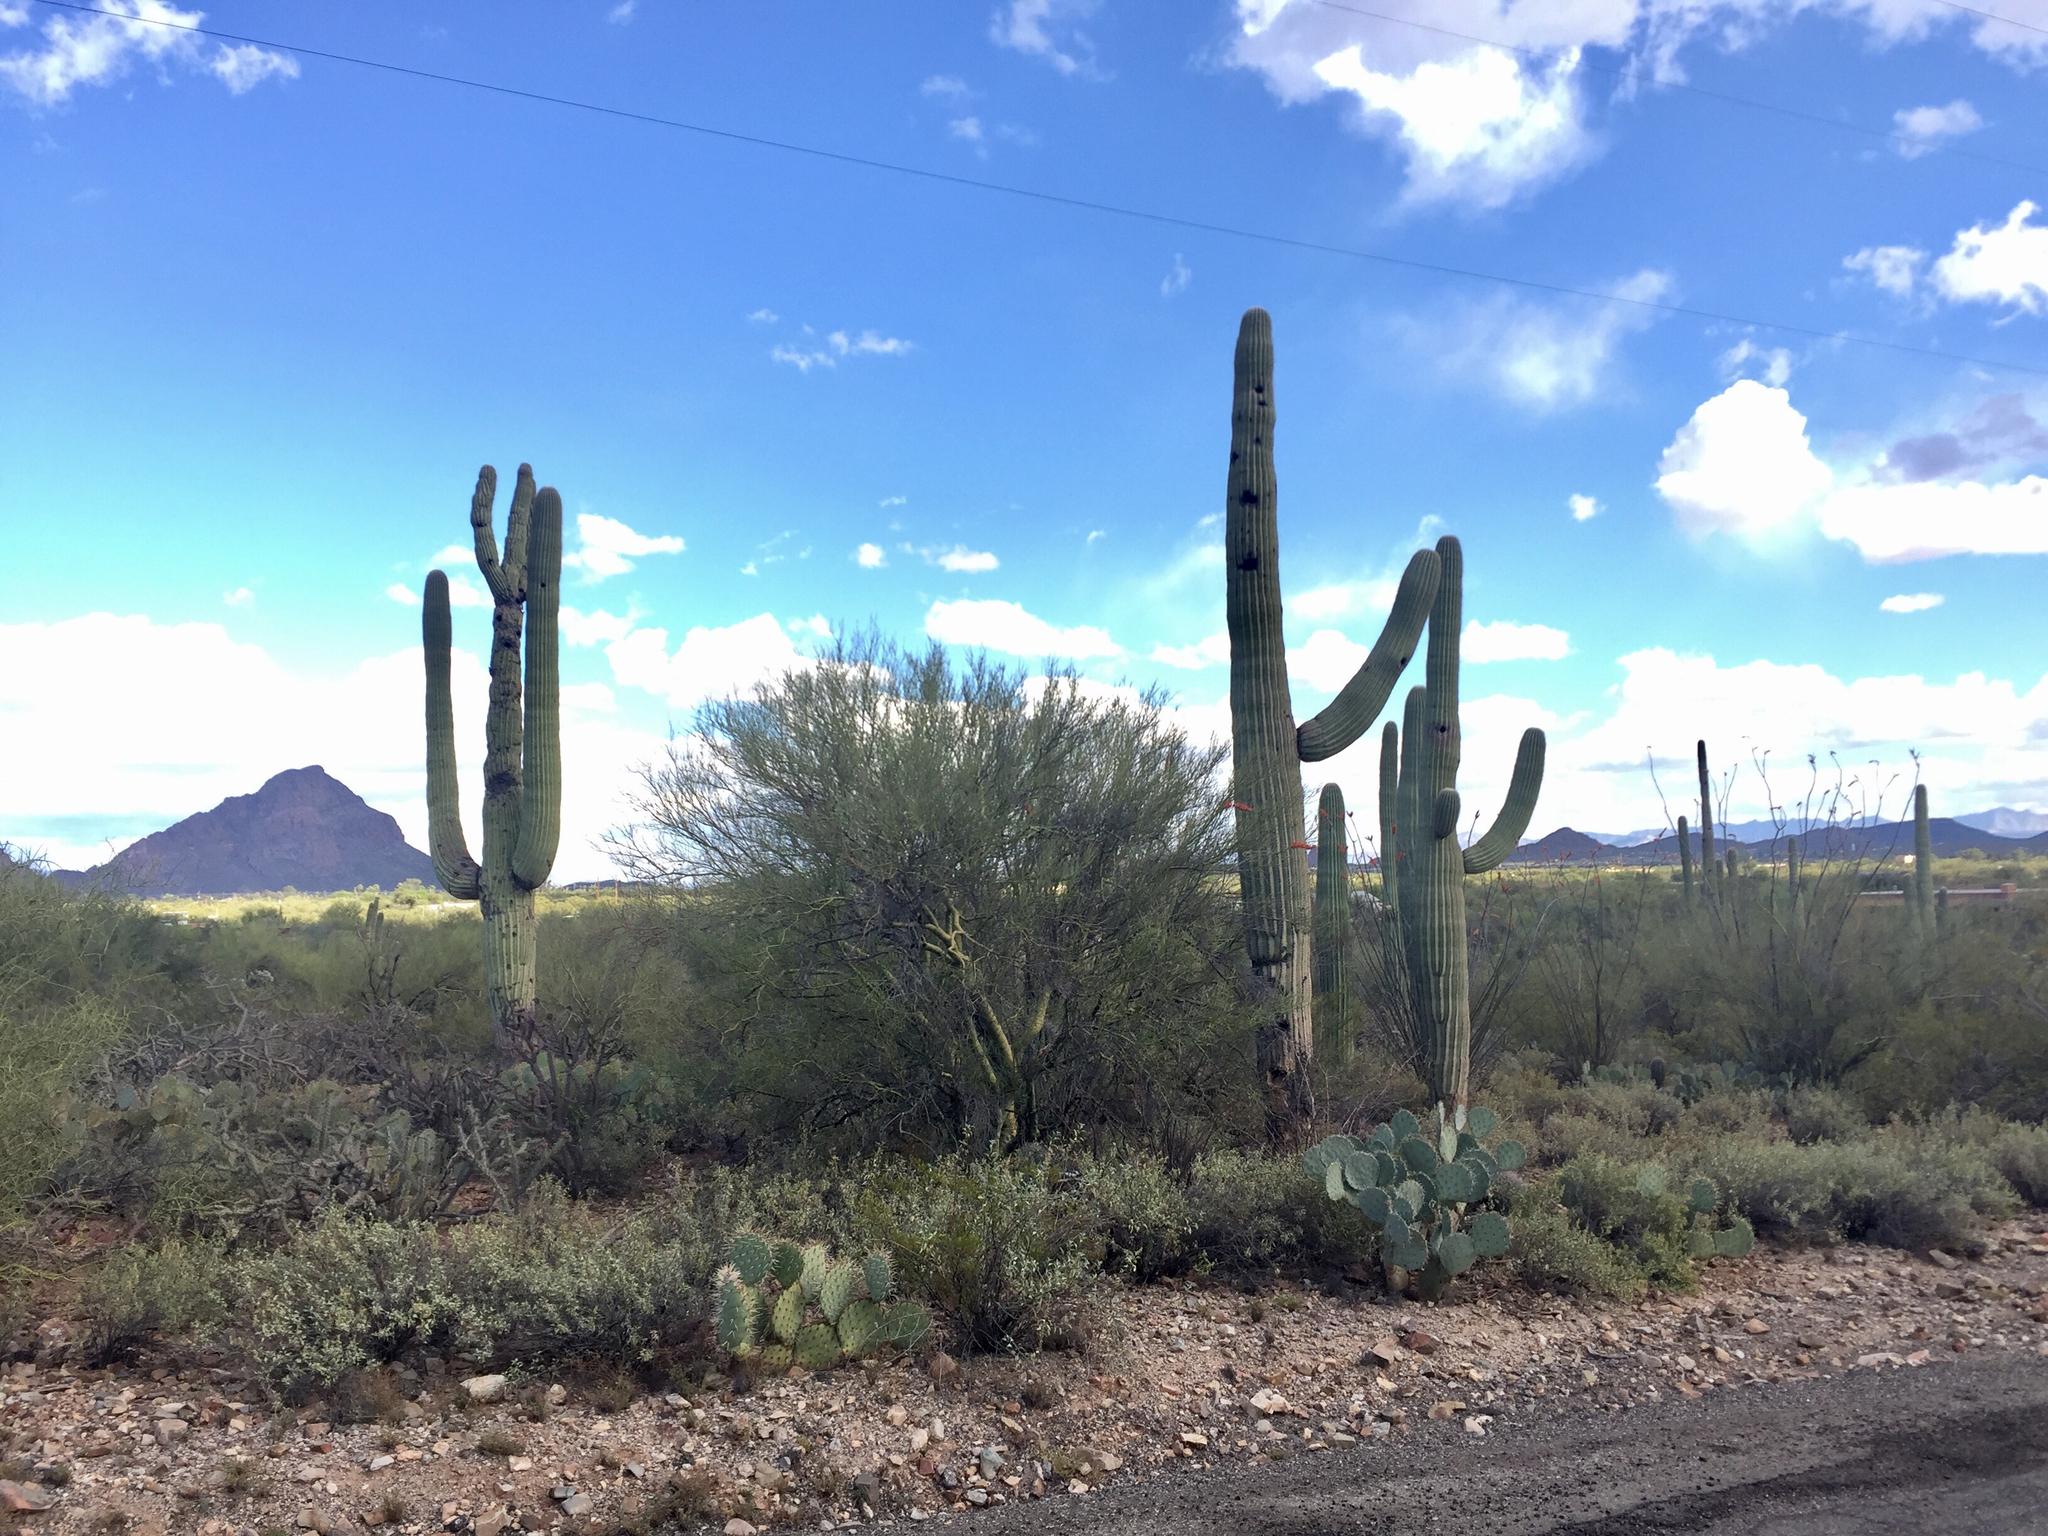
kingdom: Plantae
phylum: Tracheophyta
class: Magnoliopsida
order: Caryophyllales
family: Cactaceae
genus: Carnegiea
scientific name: Carnegiea gigantea
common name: Saguaro
